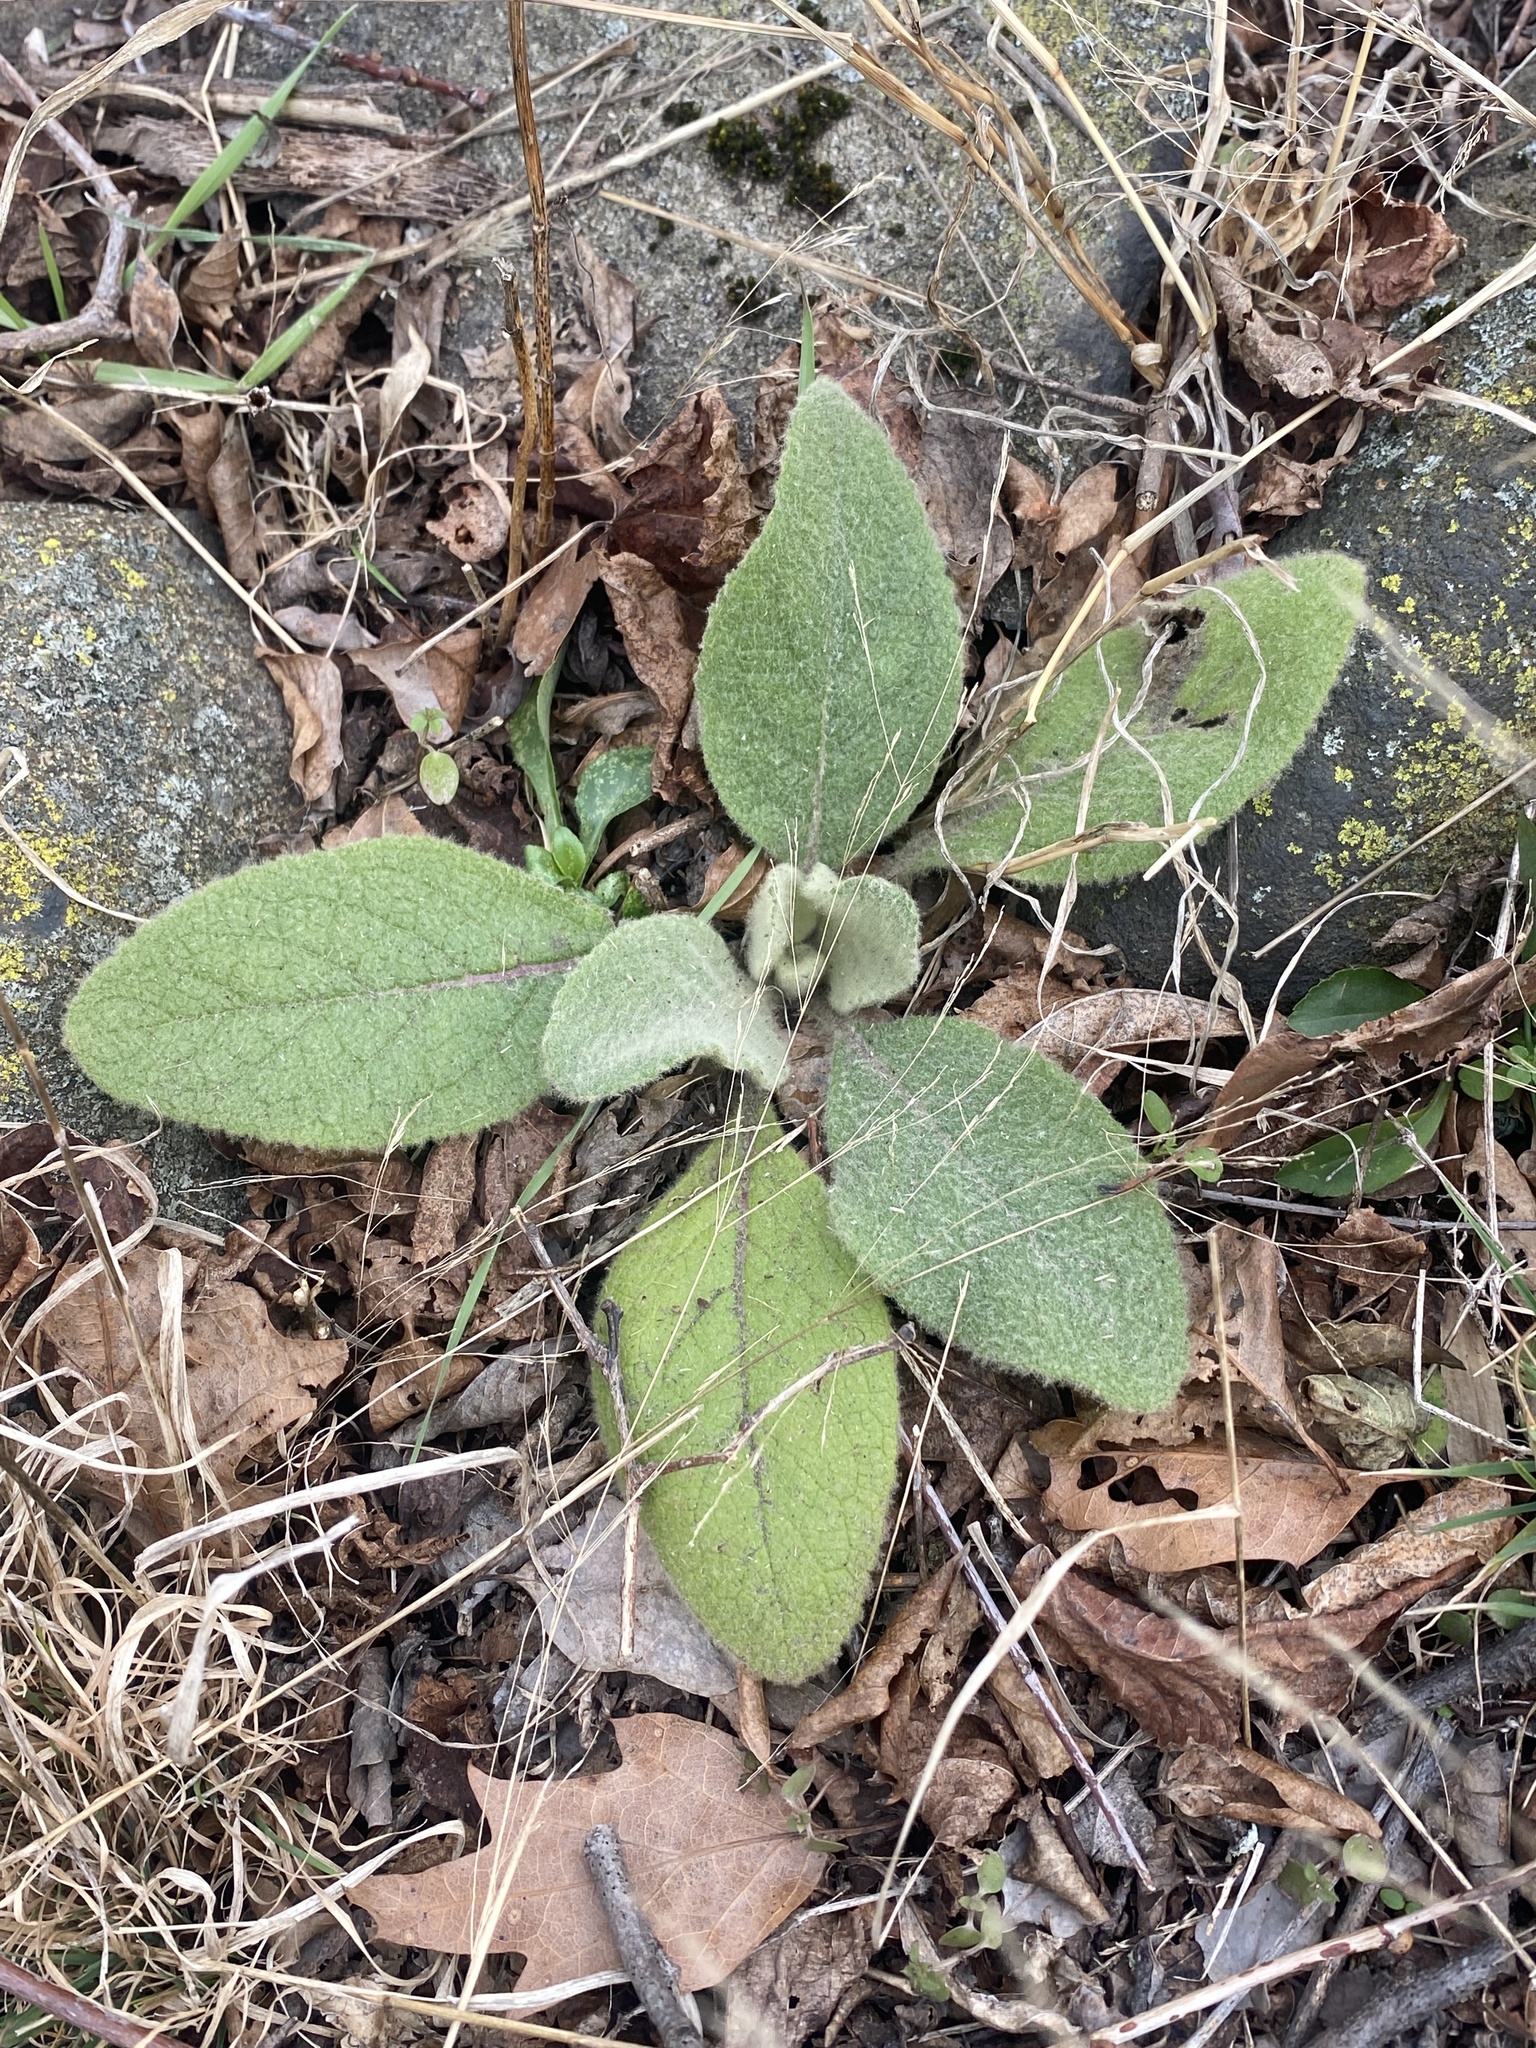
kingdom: Plantae
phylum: Tracheophyta
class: Magnoliopsida
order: Lamiales
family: Scrophulariaceae
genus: Verbascum
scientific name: Verbascum thapsus
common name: Common mullein
